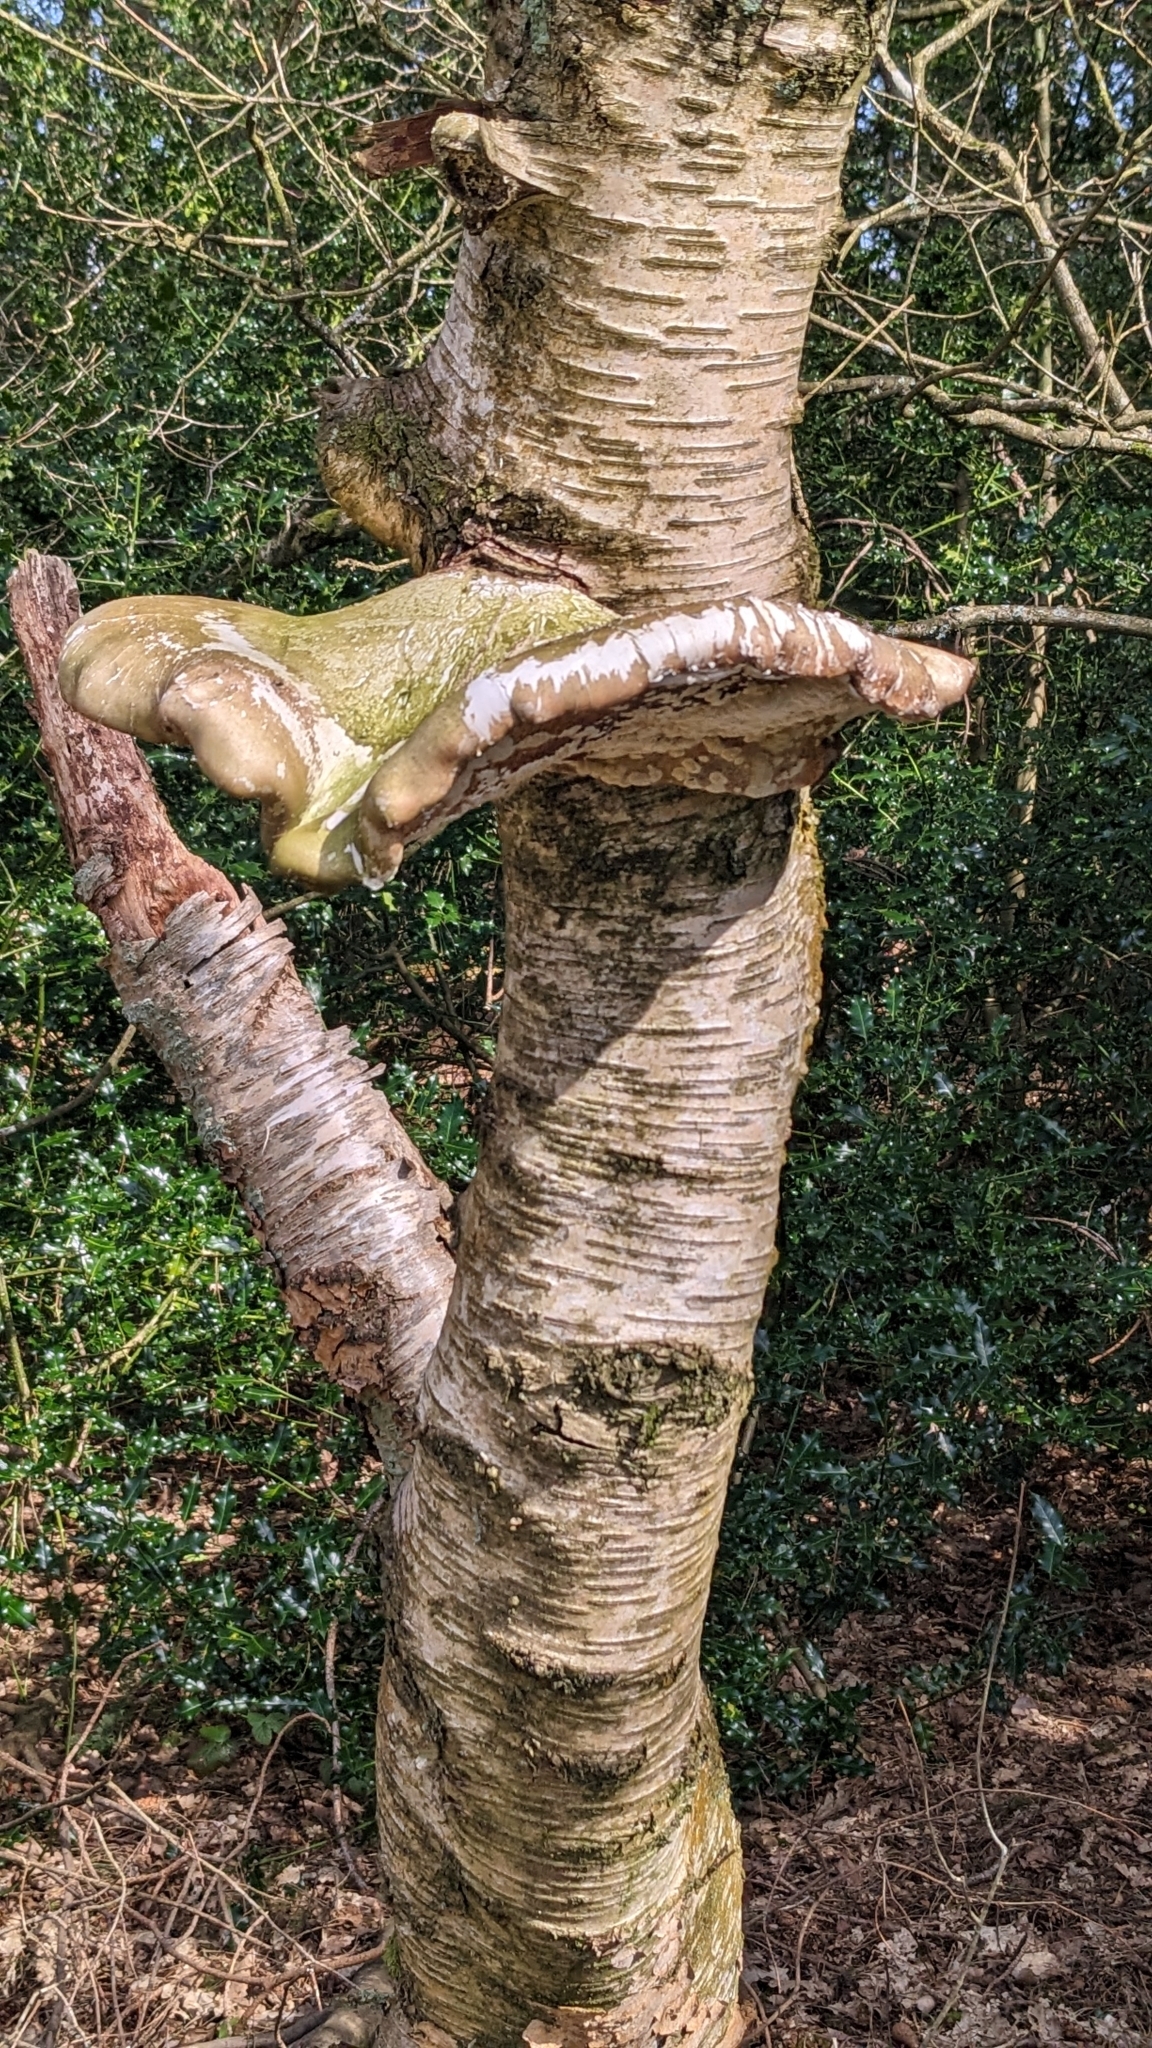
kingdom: Fungi
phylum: Basidiomycota
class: Agaricomycetes
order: Polyporales
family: Fomitopsidaceae
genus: Fomitopsis
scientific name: Fomitopsis betulina
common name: Birch polypore
